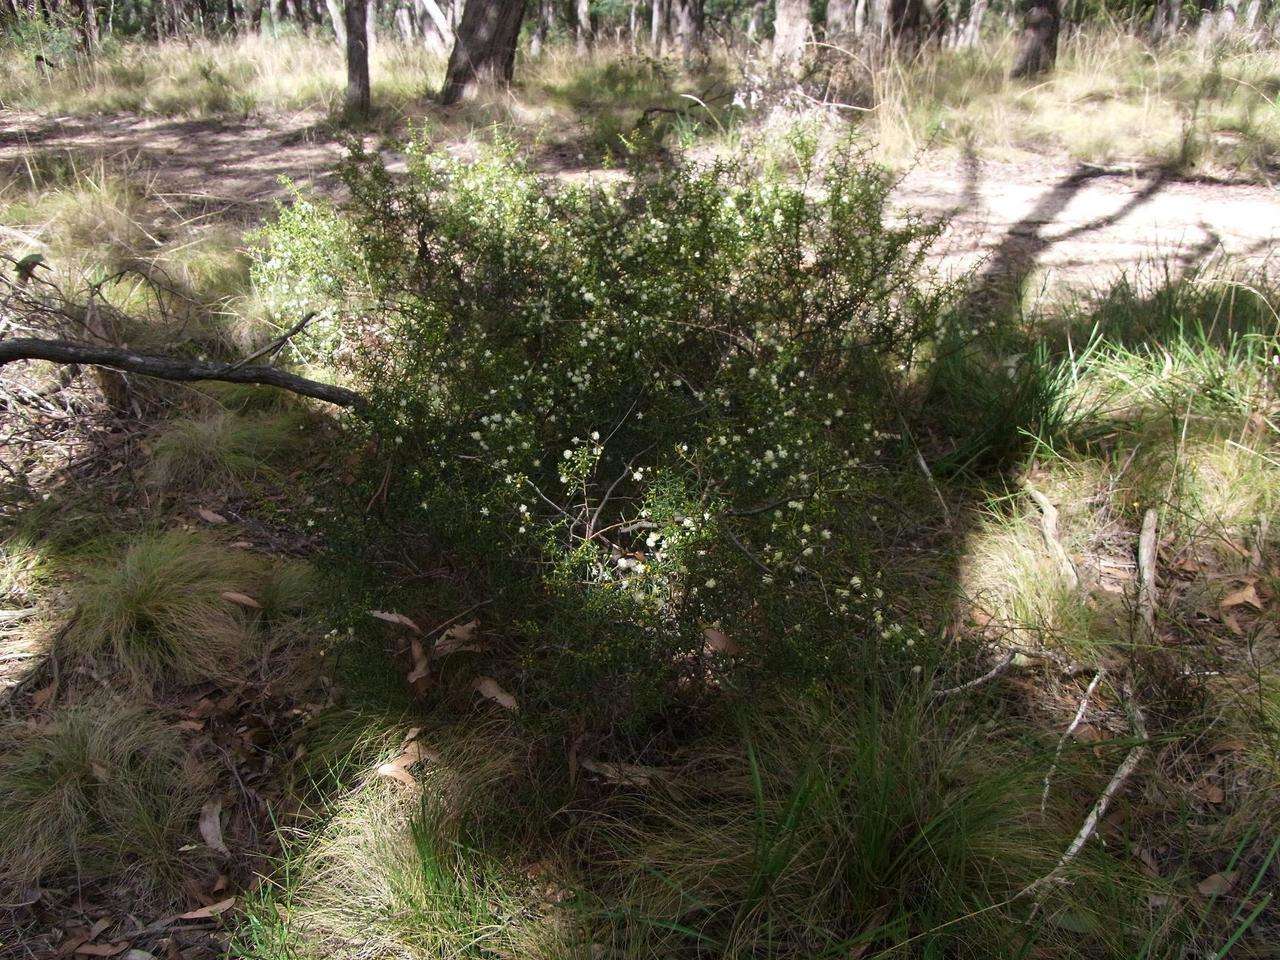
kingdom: Plantae
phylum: Tracheophyta
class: Magnoliopsida
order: Fabales
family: Fabaceae
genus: Acacia
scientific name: Acacia genistifolia
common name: Early wattle
